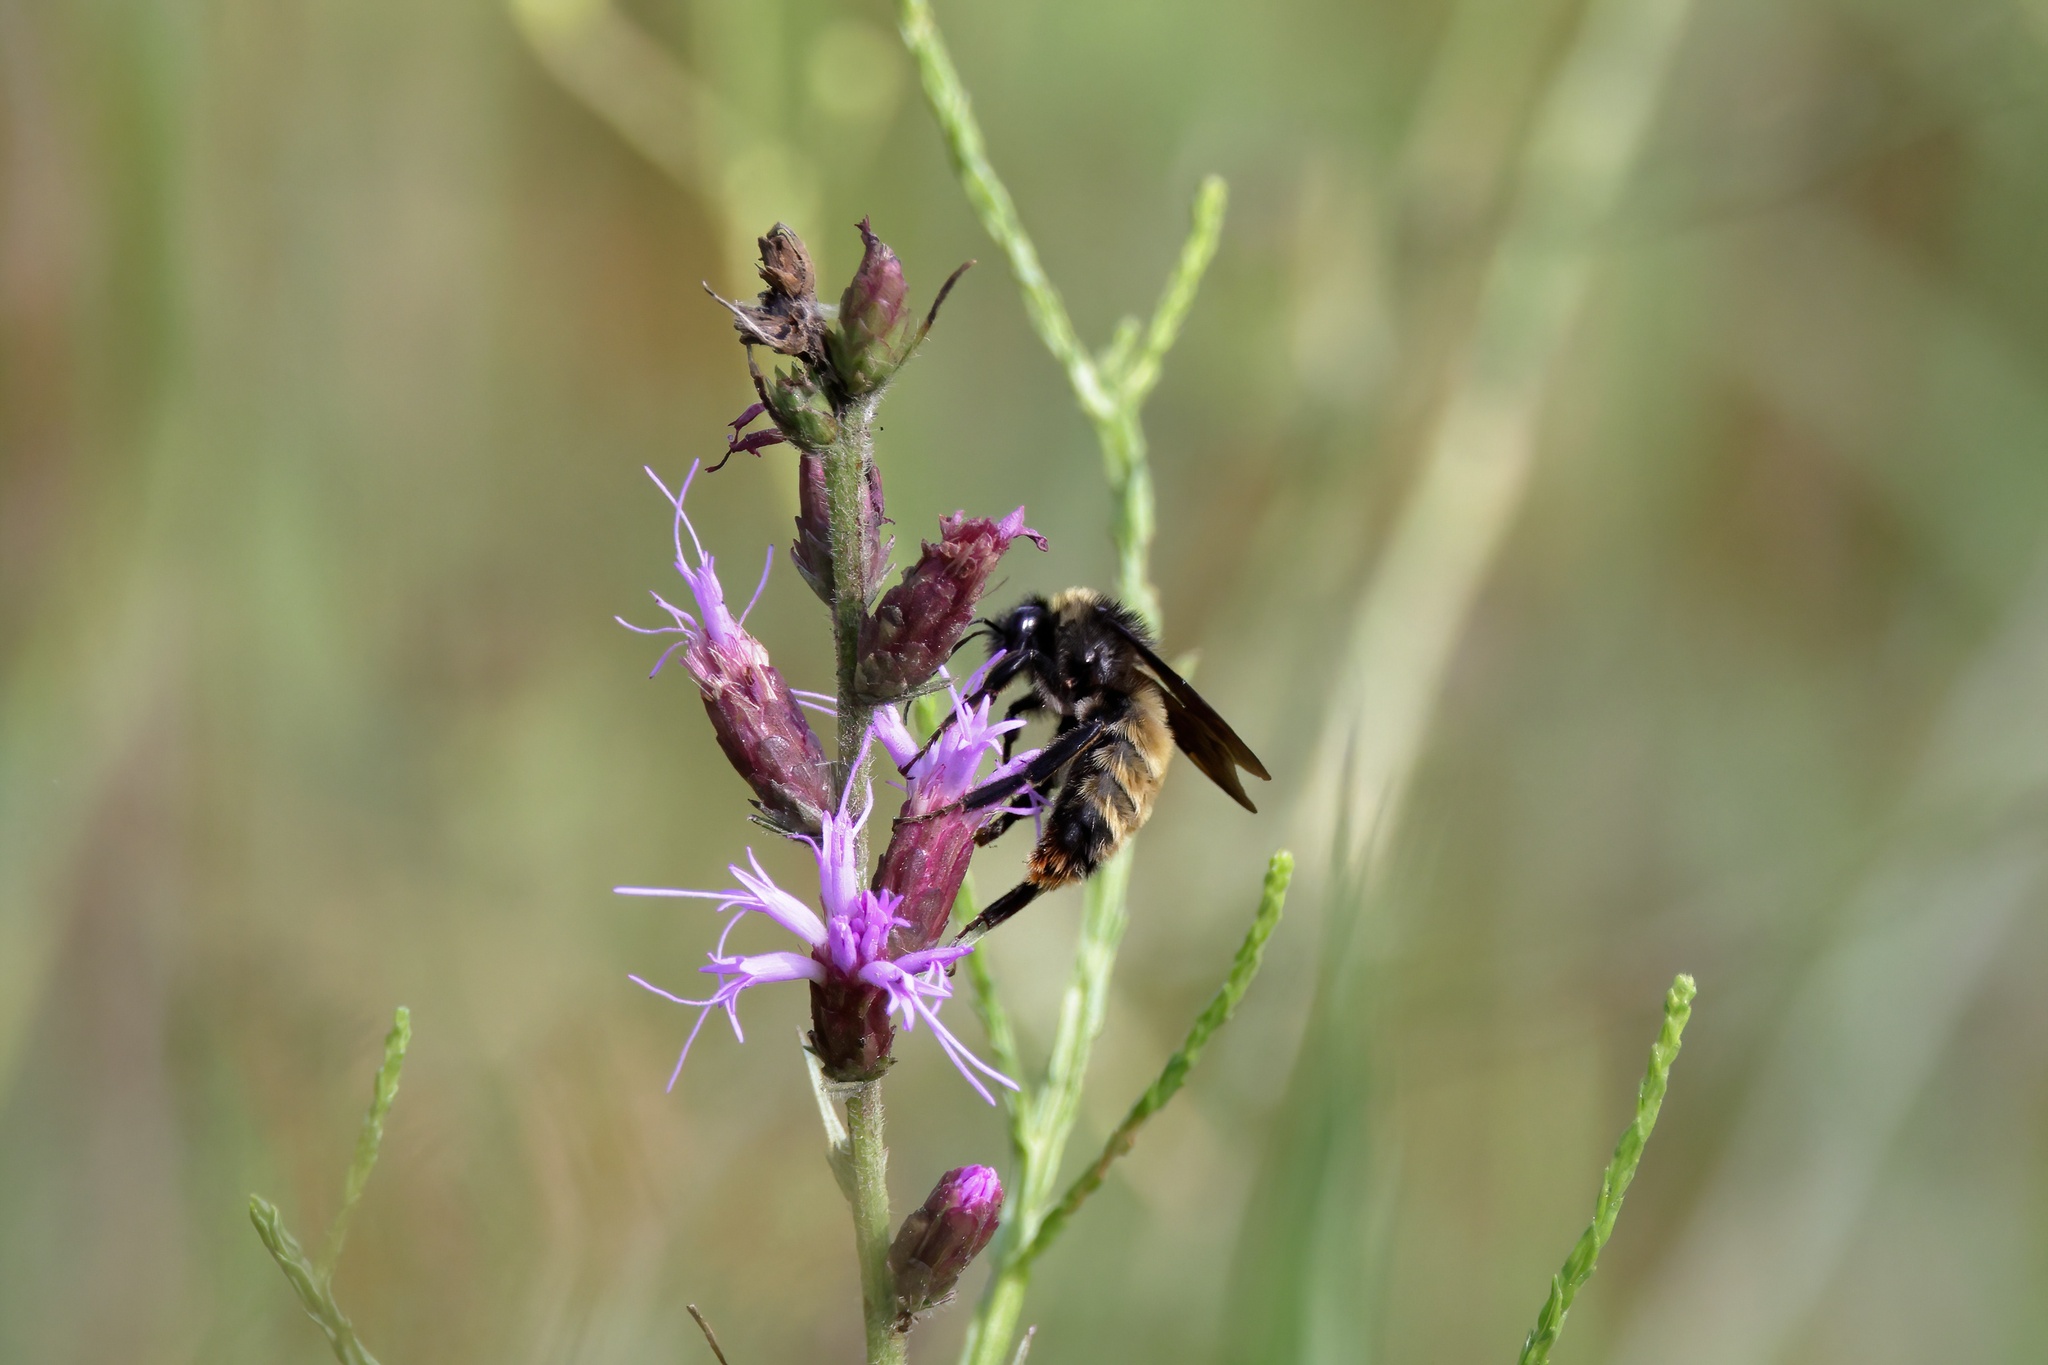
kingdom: Animalia
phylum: Arthropoda
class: Insecta
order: Hymenoptera
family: Apidae
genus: Bombus
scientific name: Bombus pensylvanicus
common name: Bumble bee
